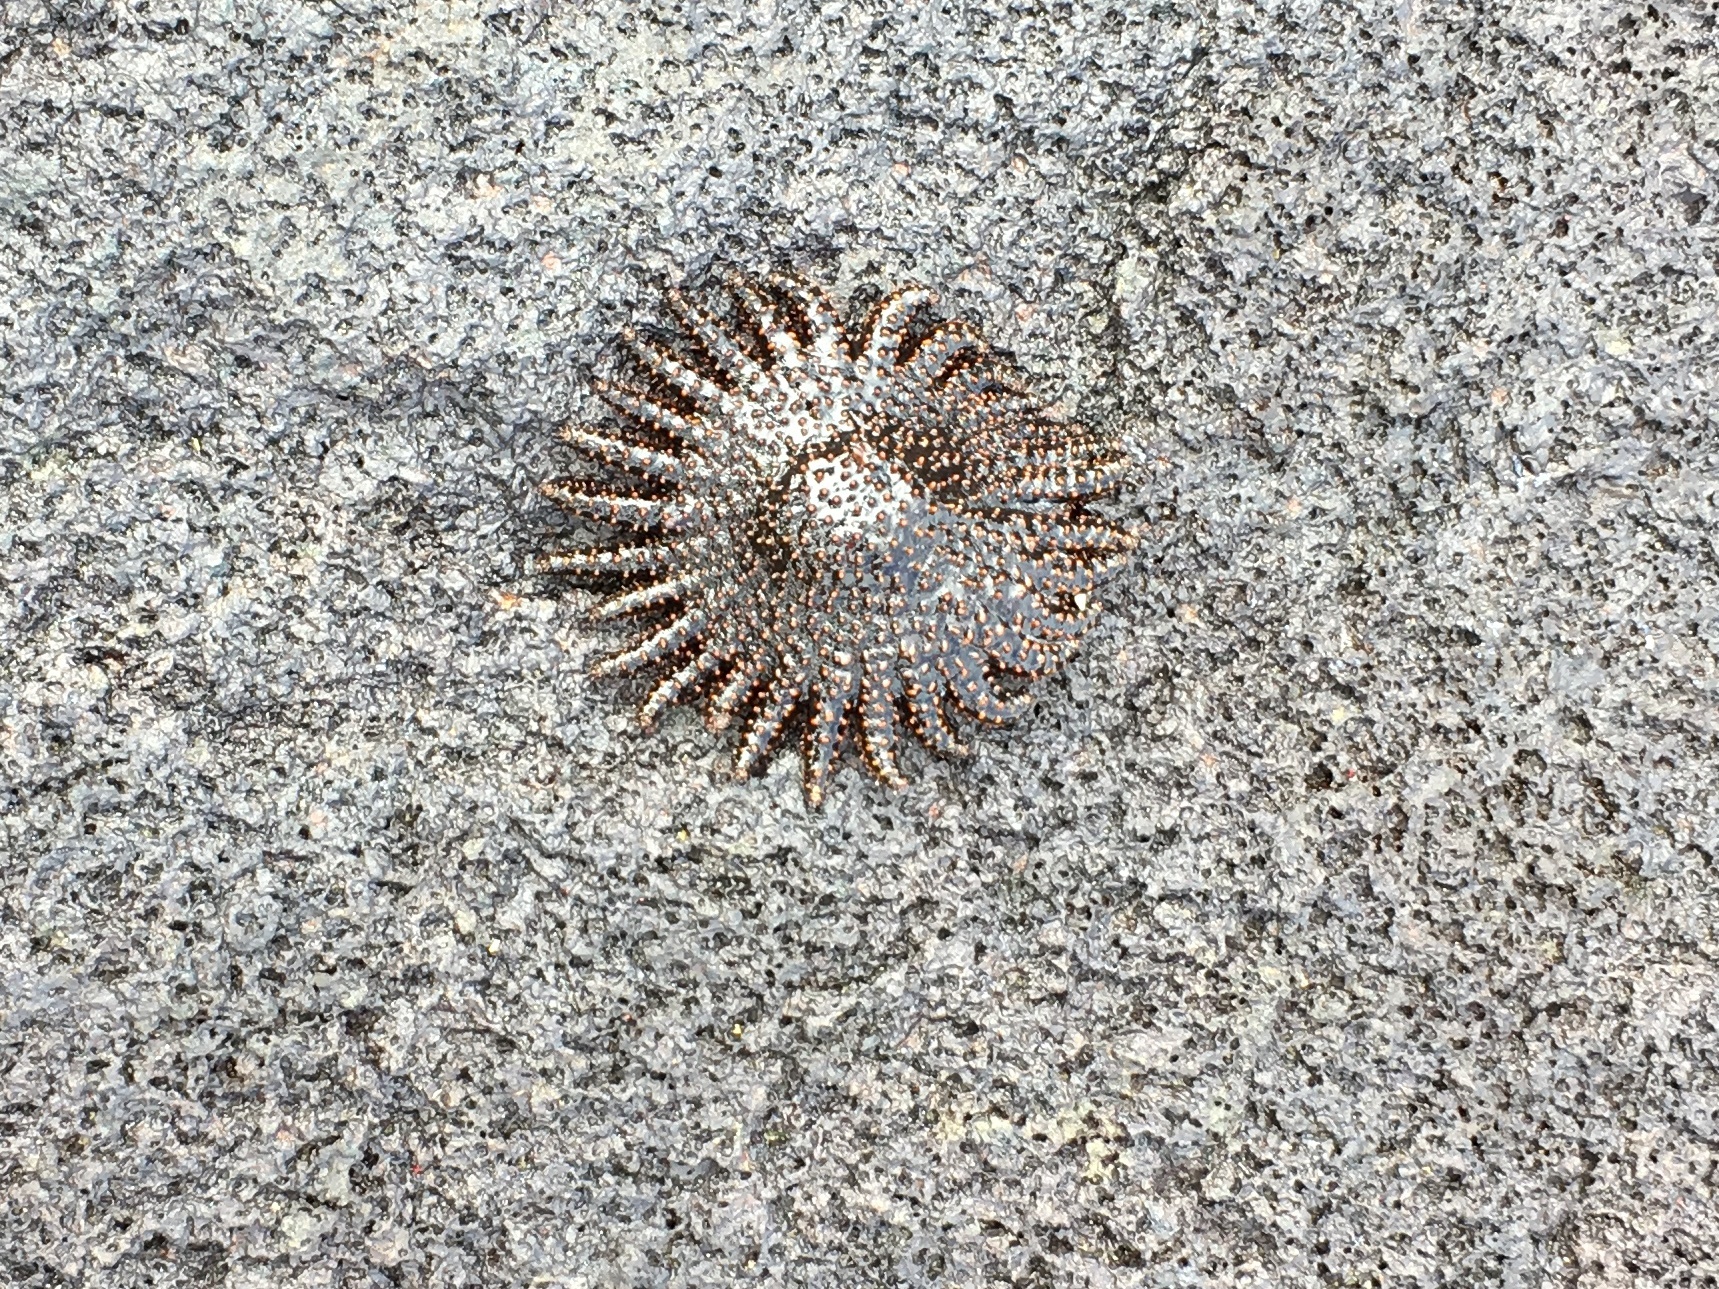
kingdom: Animalia
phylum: Echinodermata
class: Asteroidea
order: Forcipulatida
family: Heliasteridae
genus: Heliaster
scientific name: Heliaster cumingi
